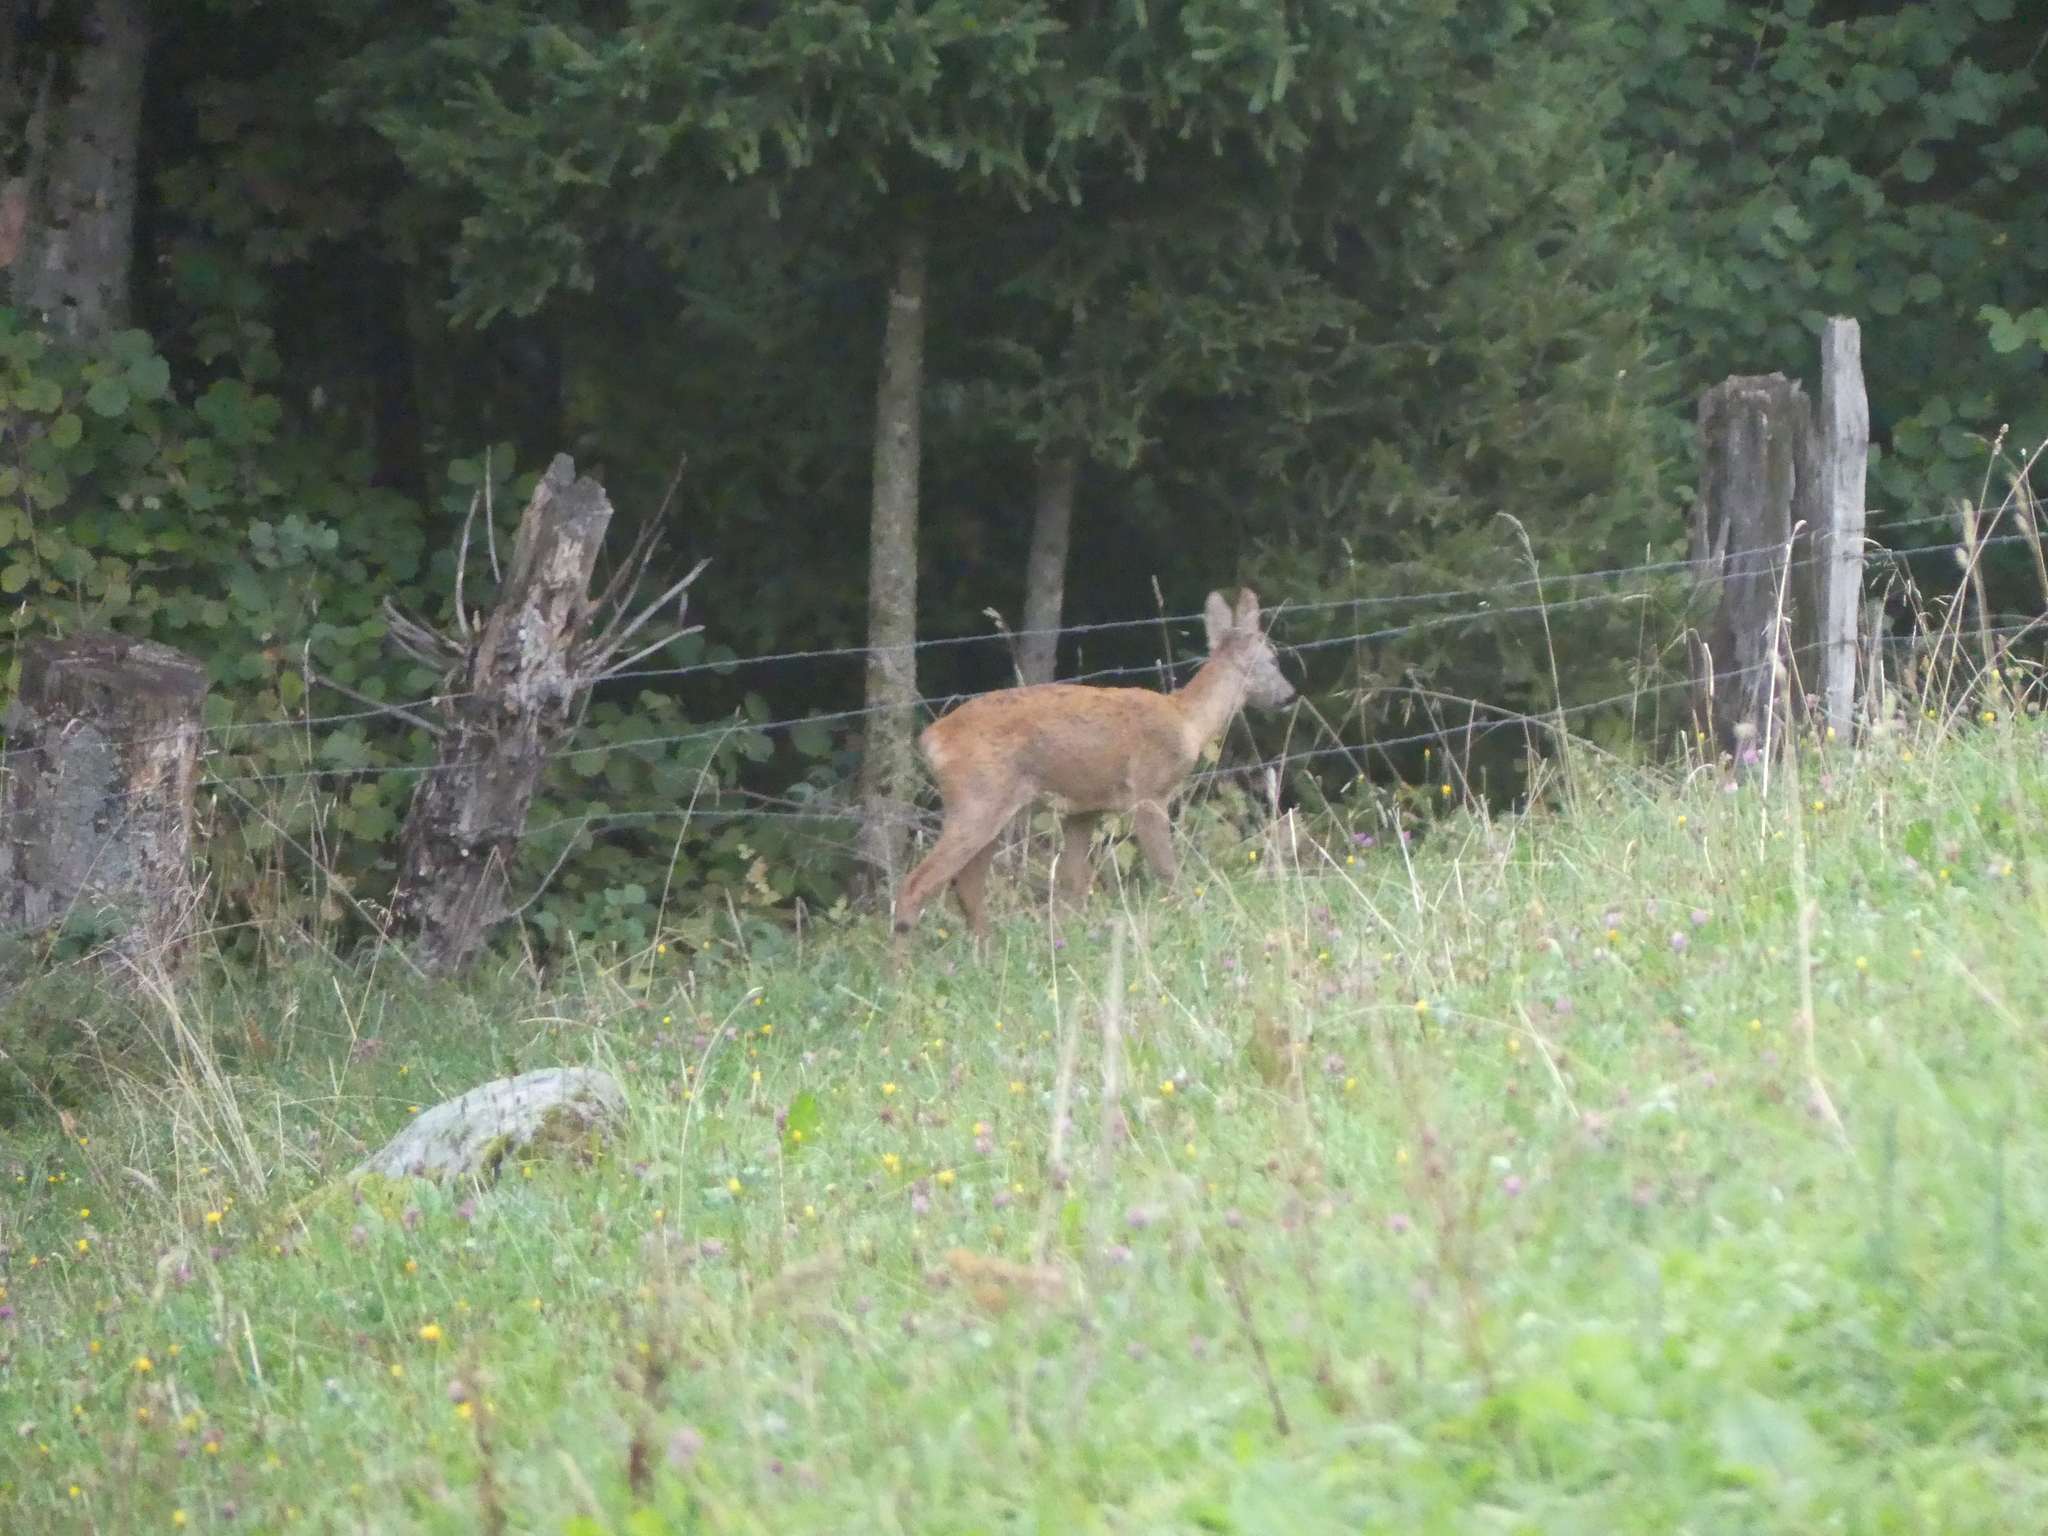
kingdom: Animalia
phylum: Chordata
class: Mammalia
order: Artiodactyla
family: Cervidae
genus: Capreolus
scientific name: Capreolus capreolus
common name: Western roe deer
